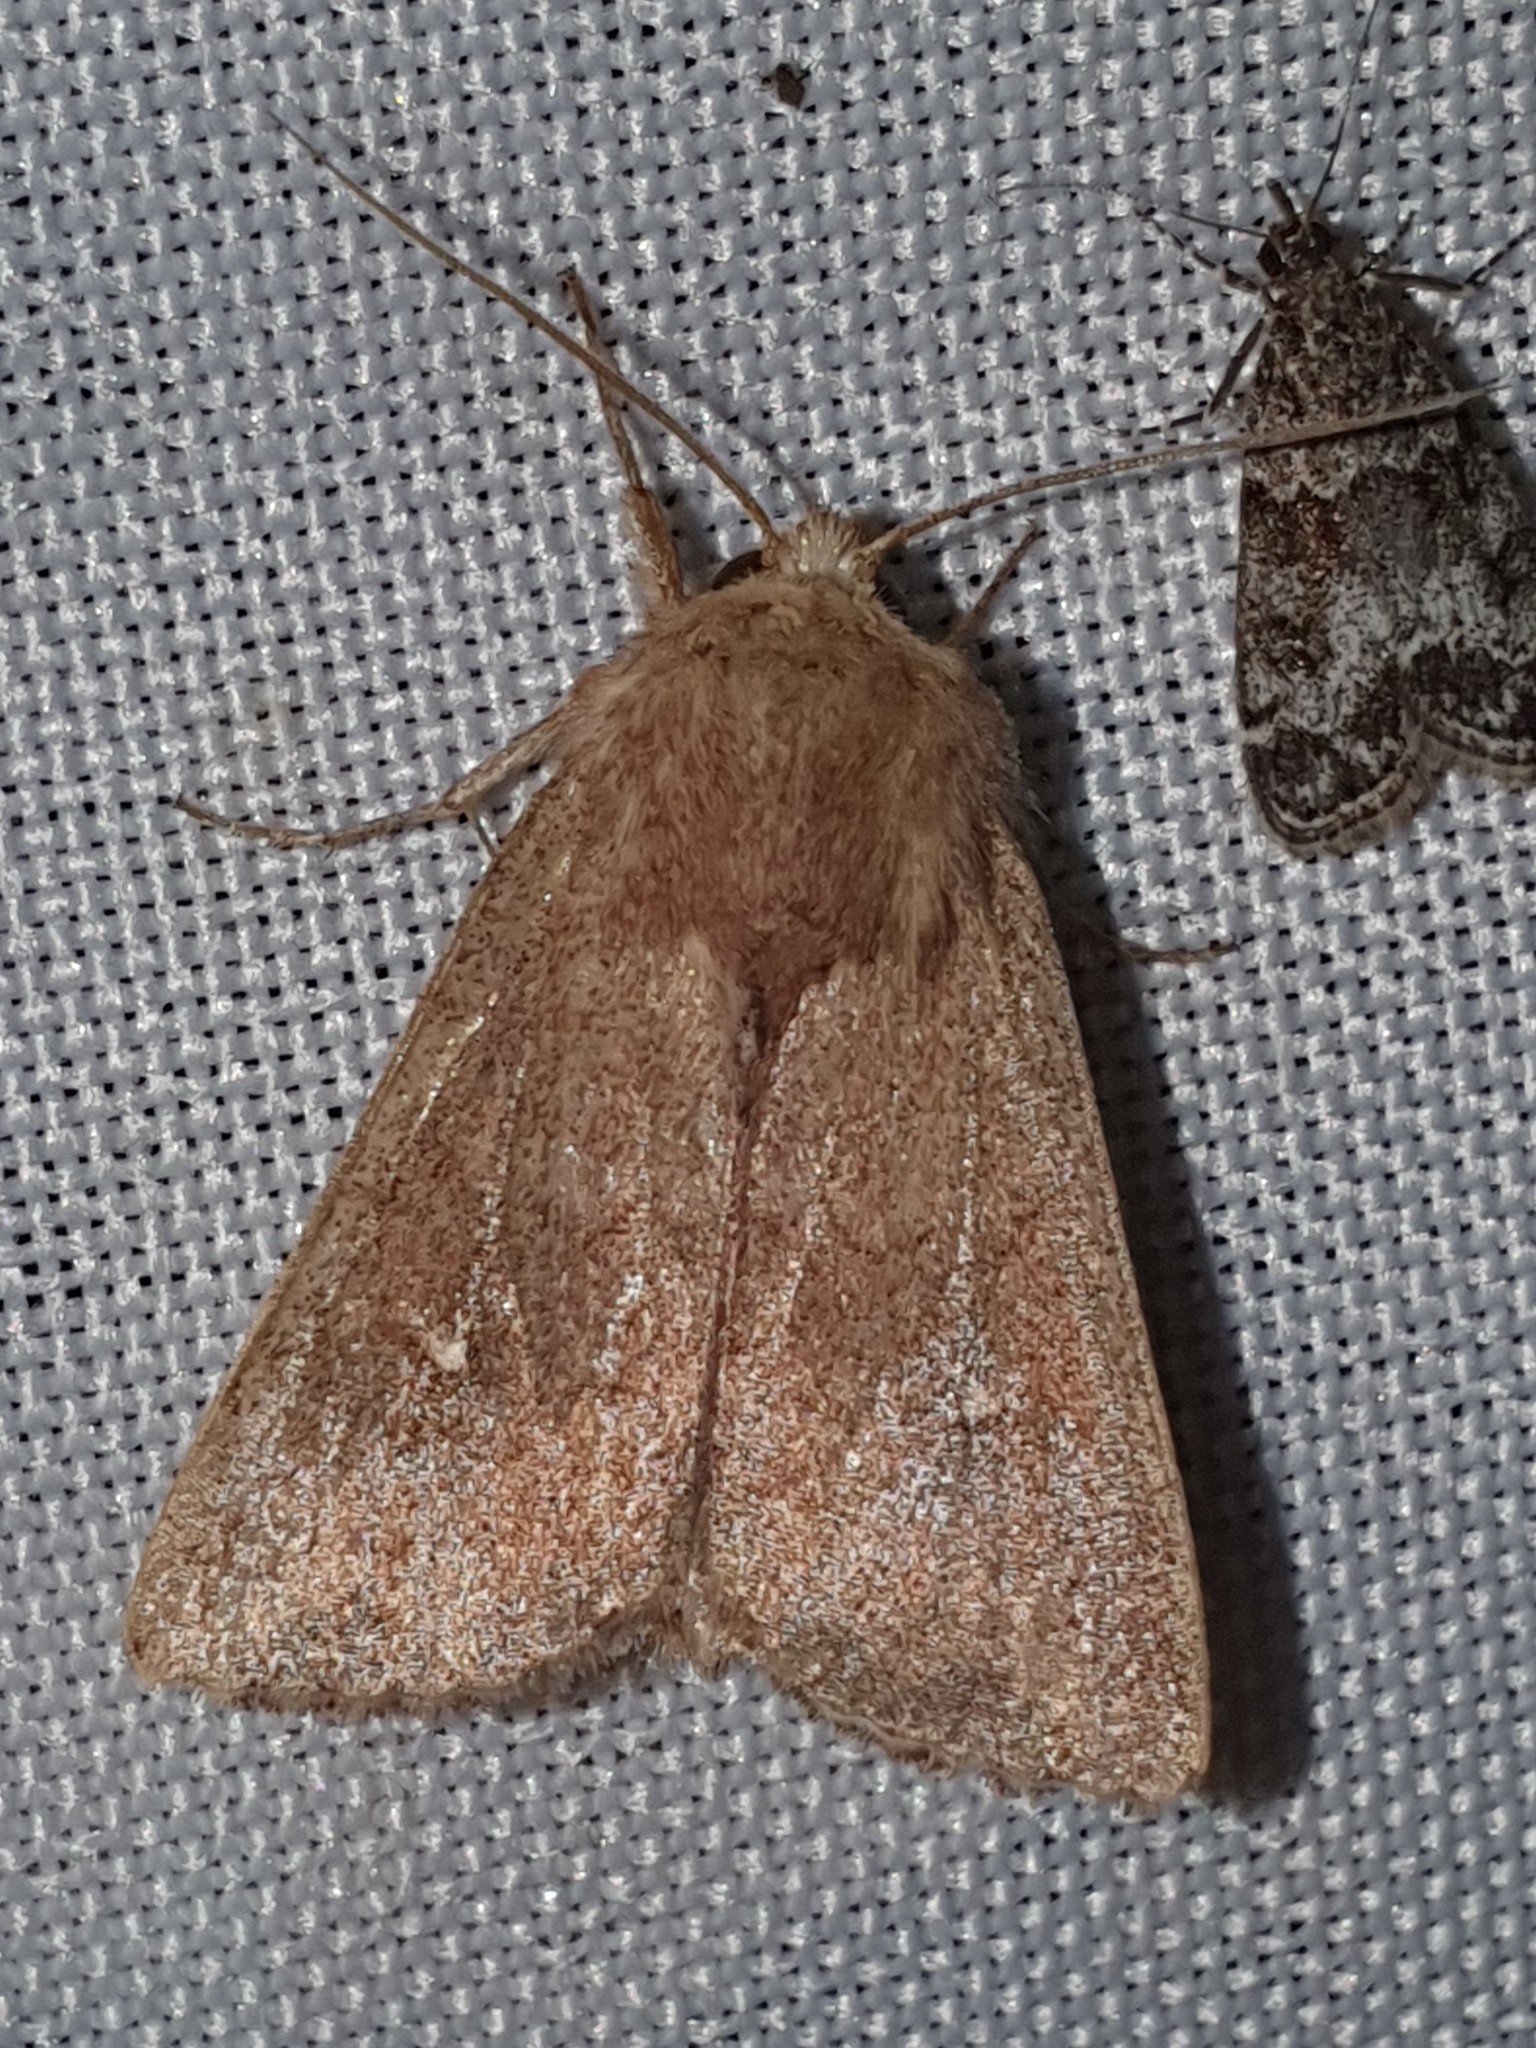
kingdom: Animalia
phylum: Arthropoda
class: Insecta
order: Lepidoptera
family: Noctuidae
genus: Mythimna
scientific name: Mythimna albipuncta
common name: White-point
